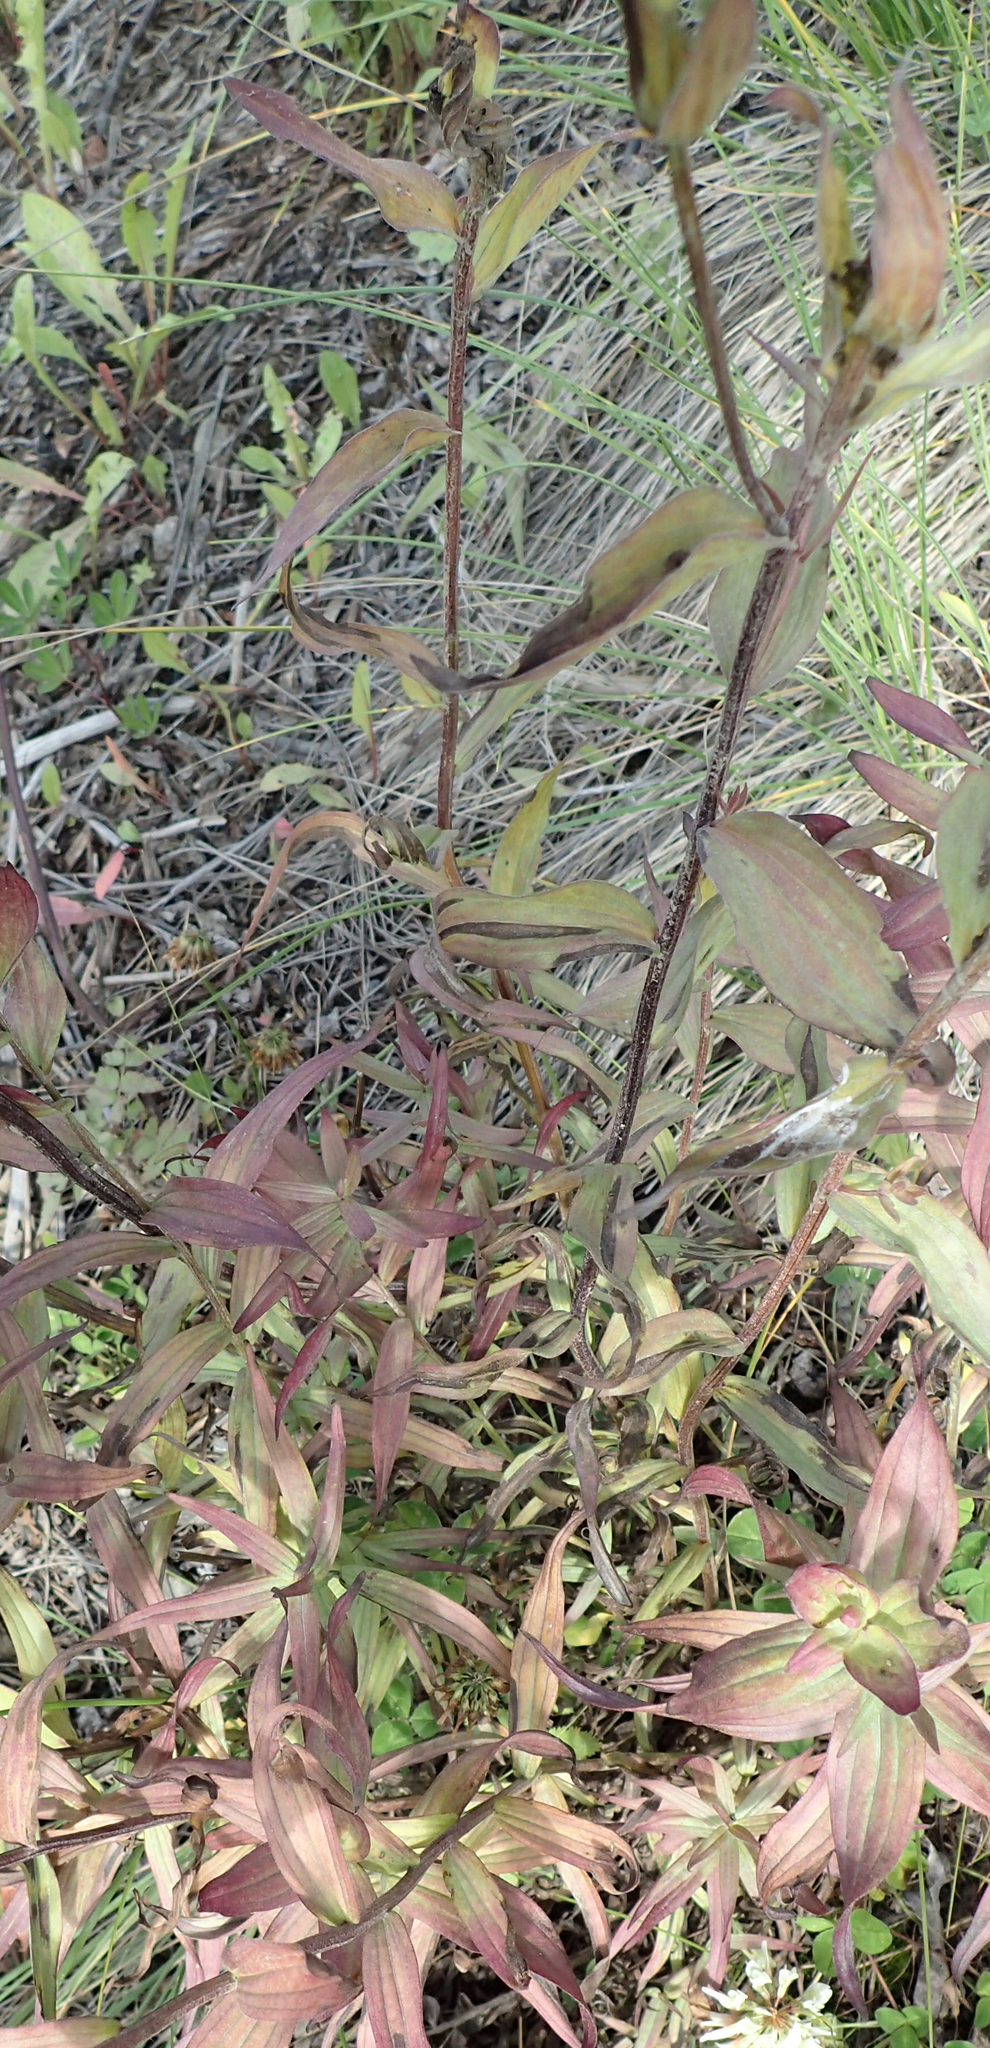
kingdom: Plantae
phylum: Tracheophyta
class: Magnoliopsida
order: Lamiales
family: Orobanchaceae
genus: Castilleja
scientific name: Castilleja unalaschcensis
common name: Unalaska paintbrush
